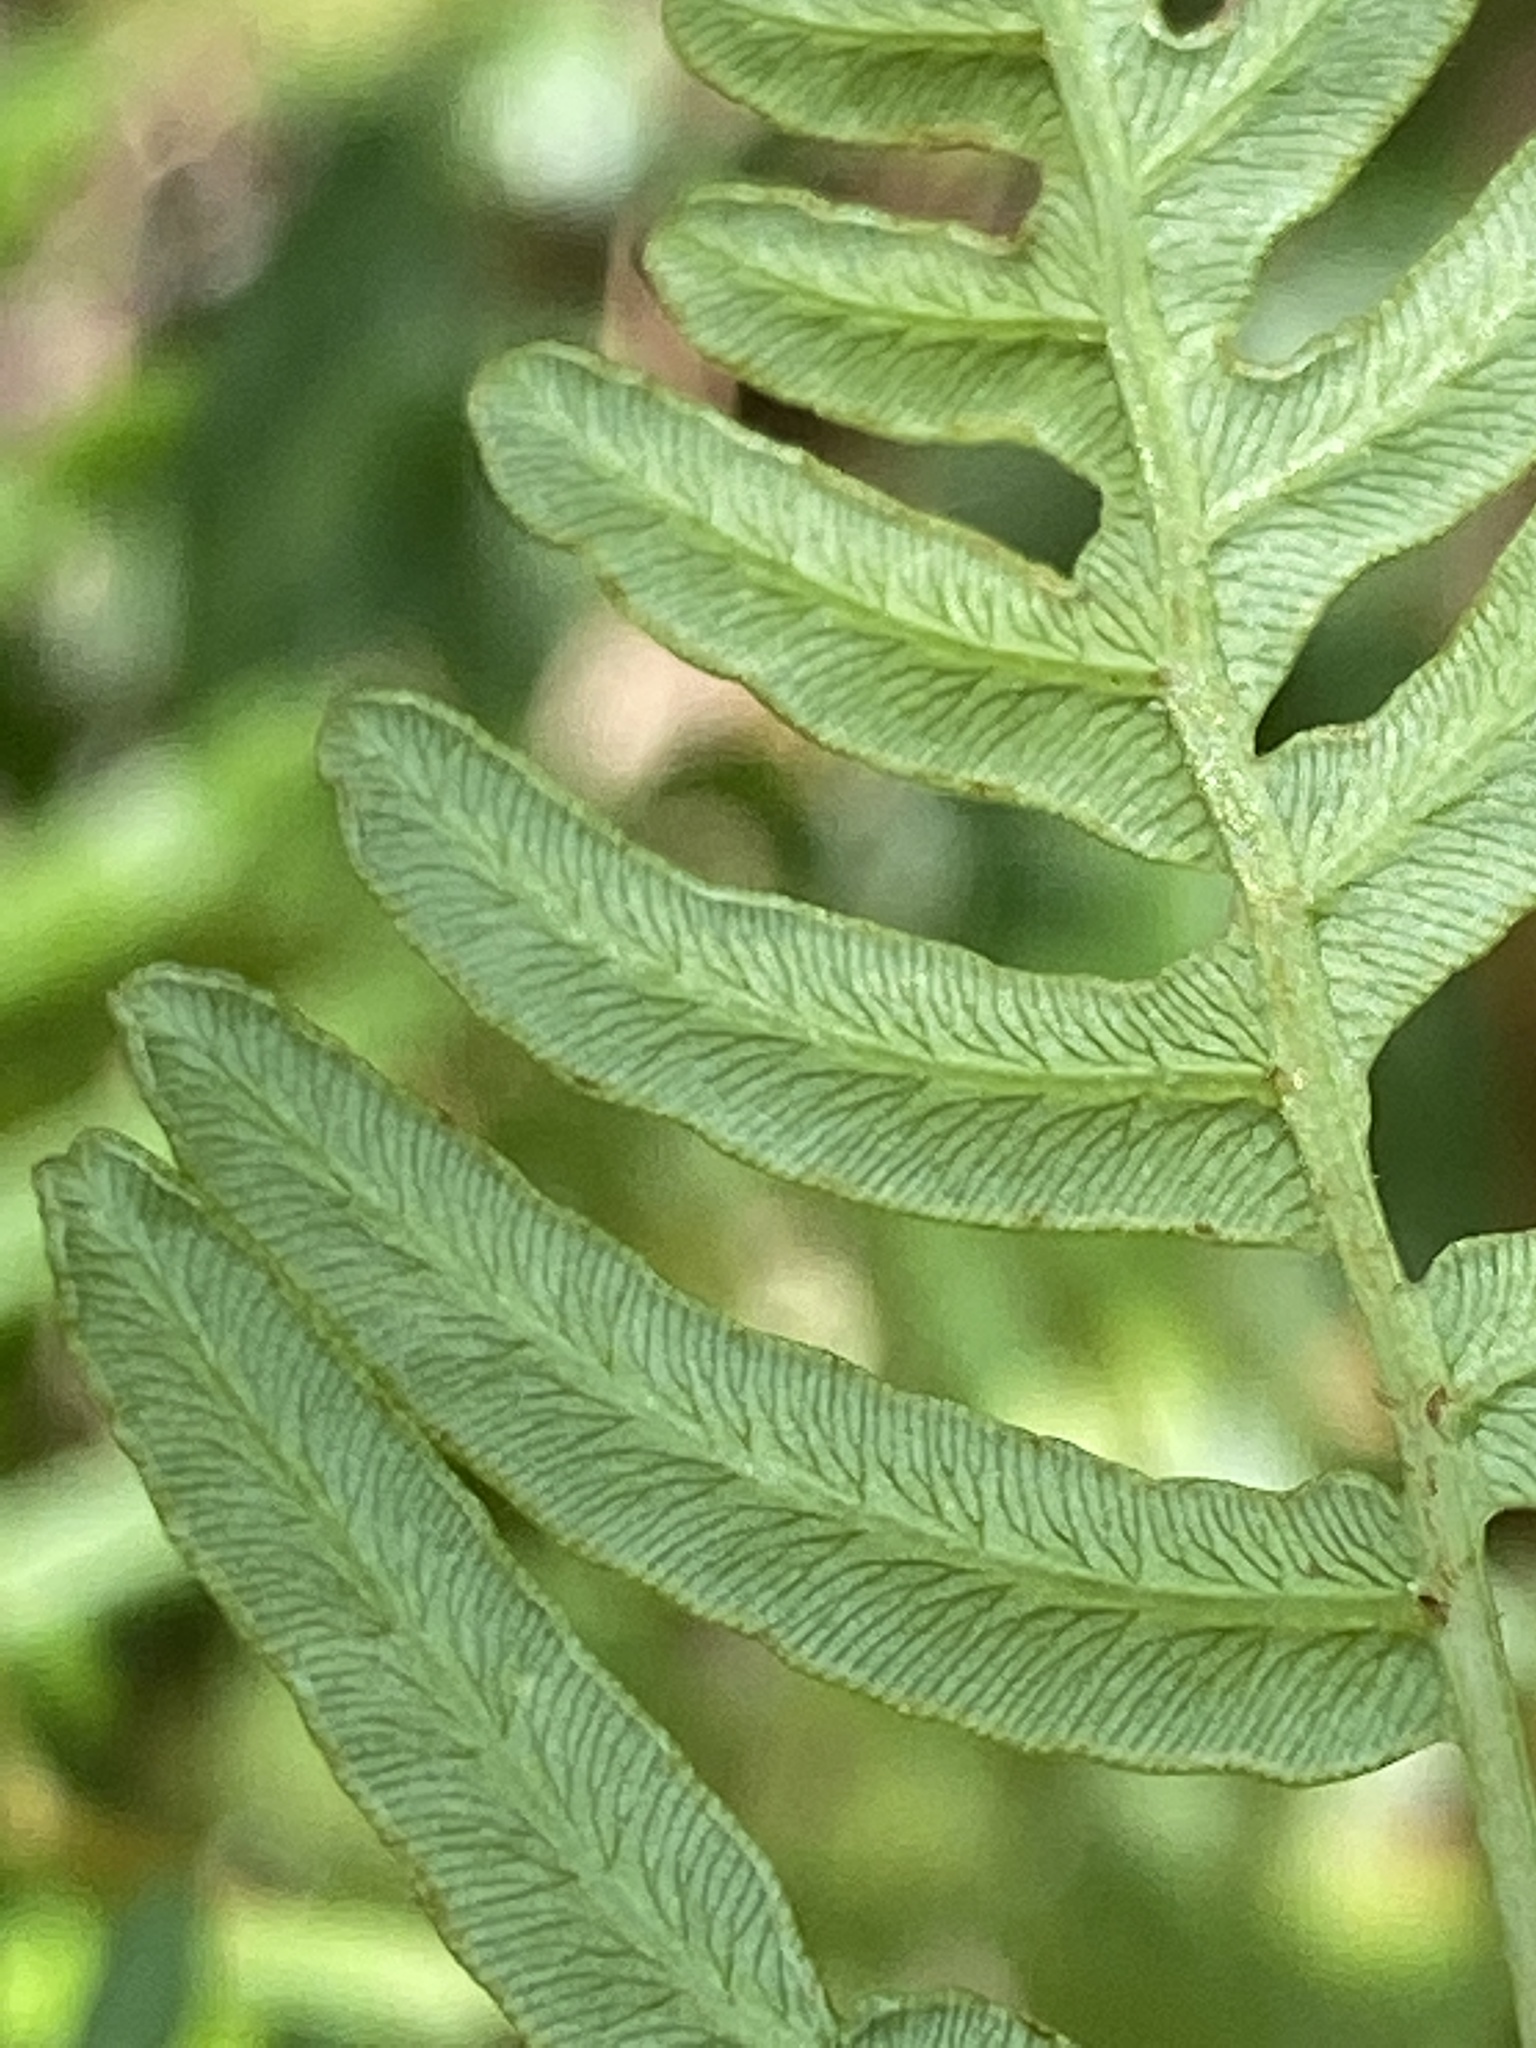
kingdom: Plantae
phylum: Tracheophyta
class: Polypodiopsida
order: Polypodiales
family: Dennstaedtiaceae
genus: Pteridium
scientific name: Pteridium
